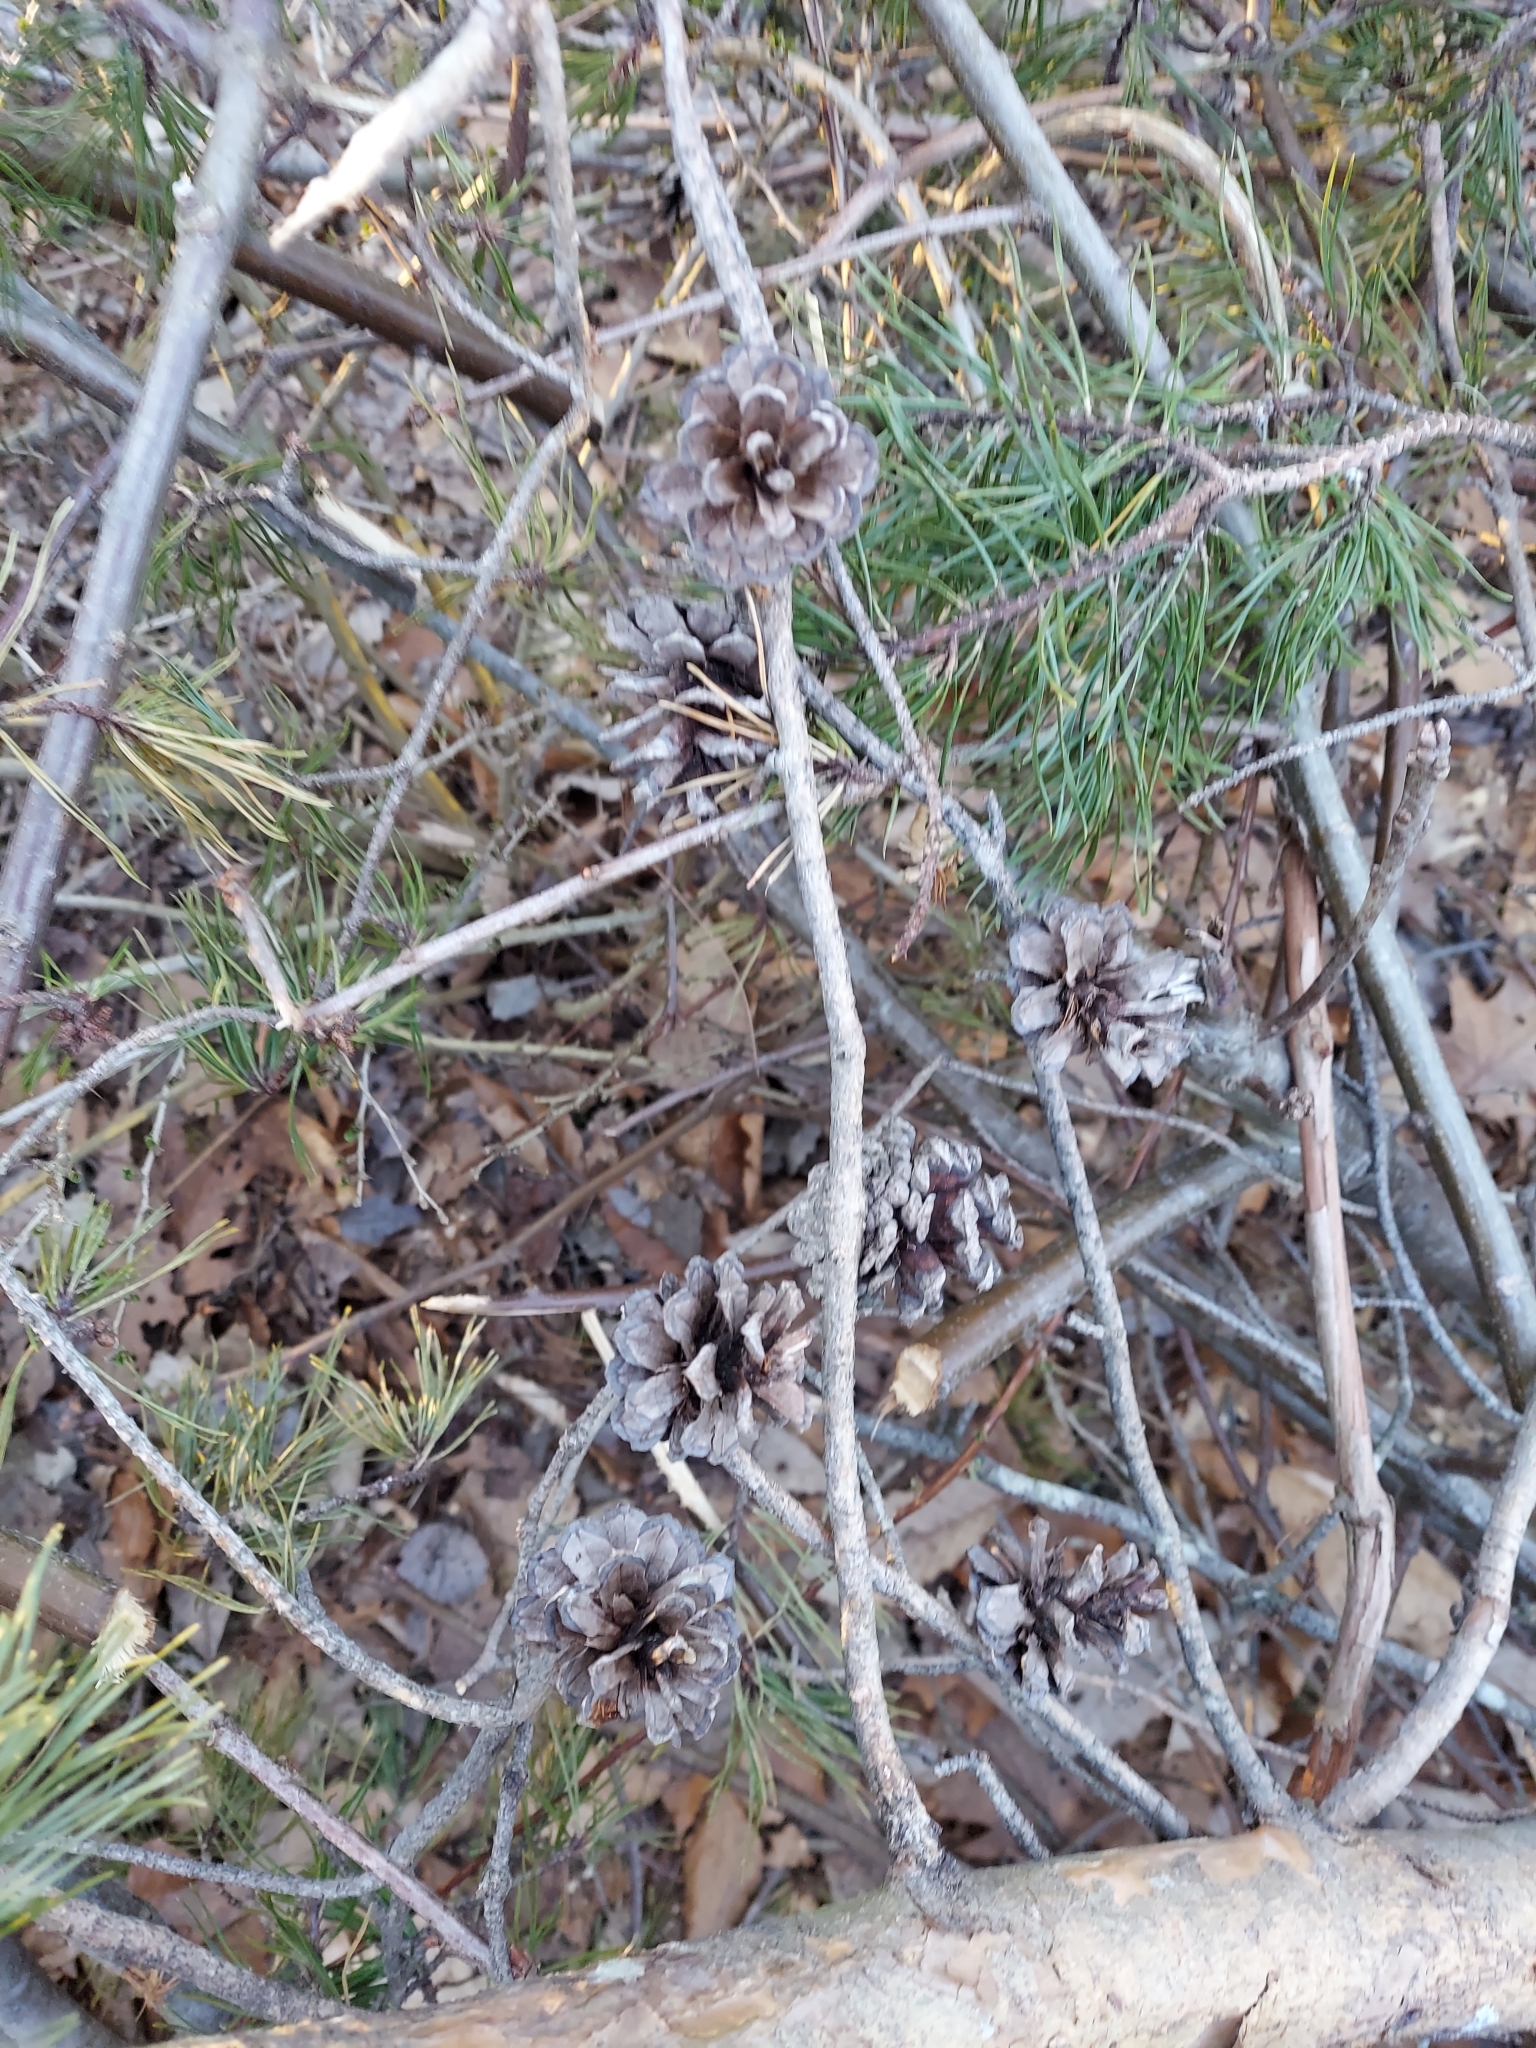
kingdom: Plantae
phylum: Tracheophyta
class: Pinopsida
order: Pinales
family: Pinaceae
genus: Pinus
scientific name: Pinus virginiana
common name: Scrub pine
